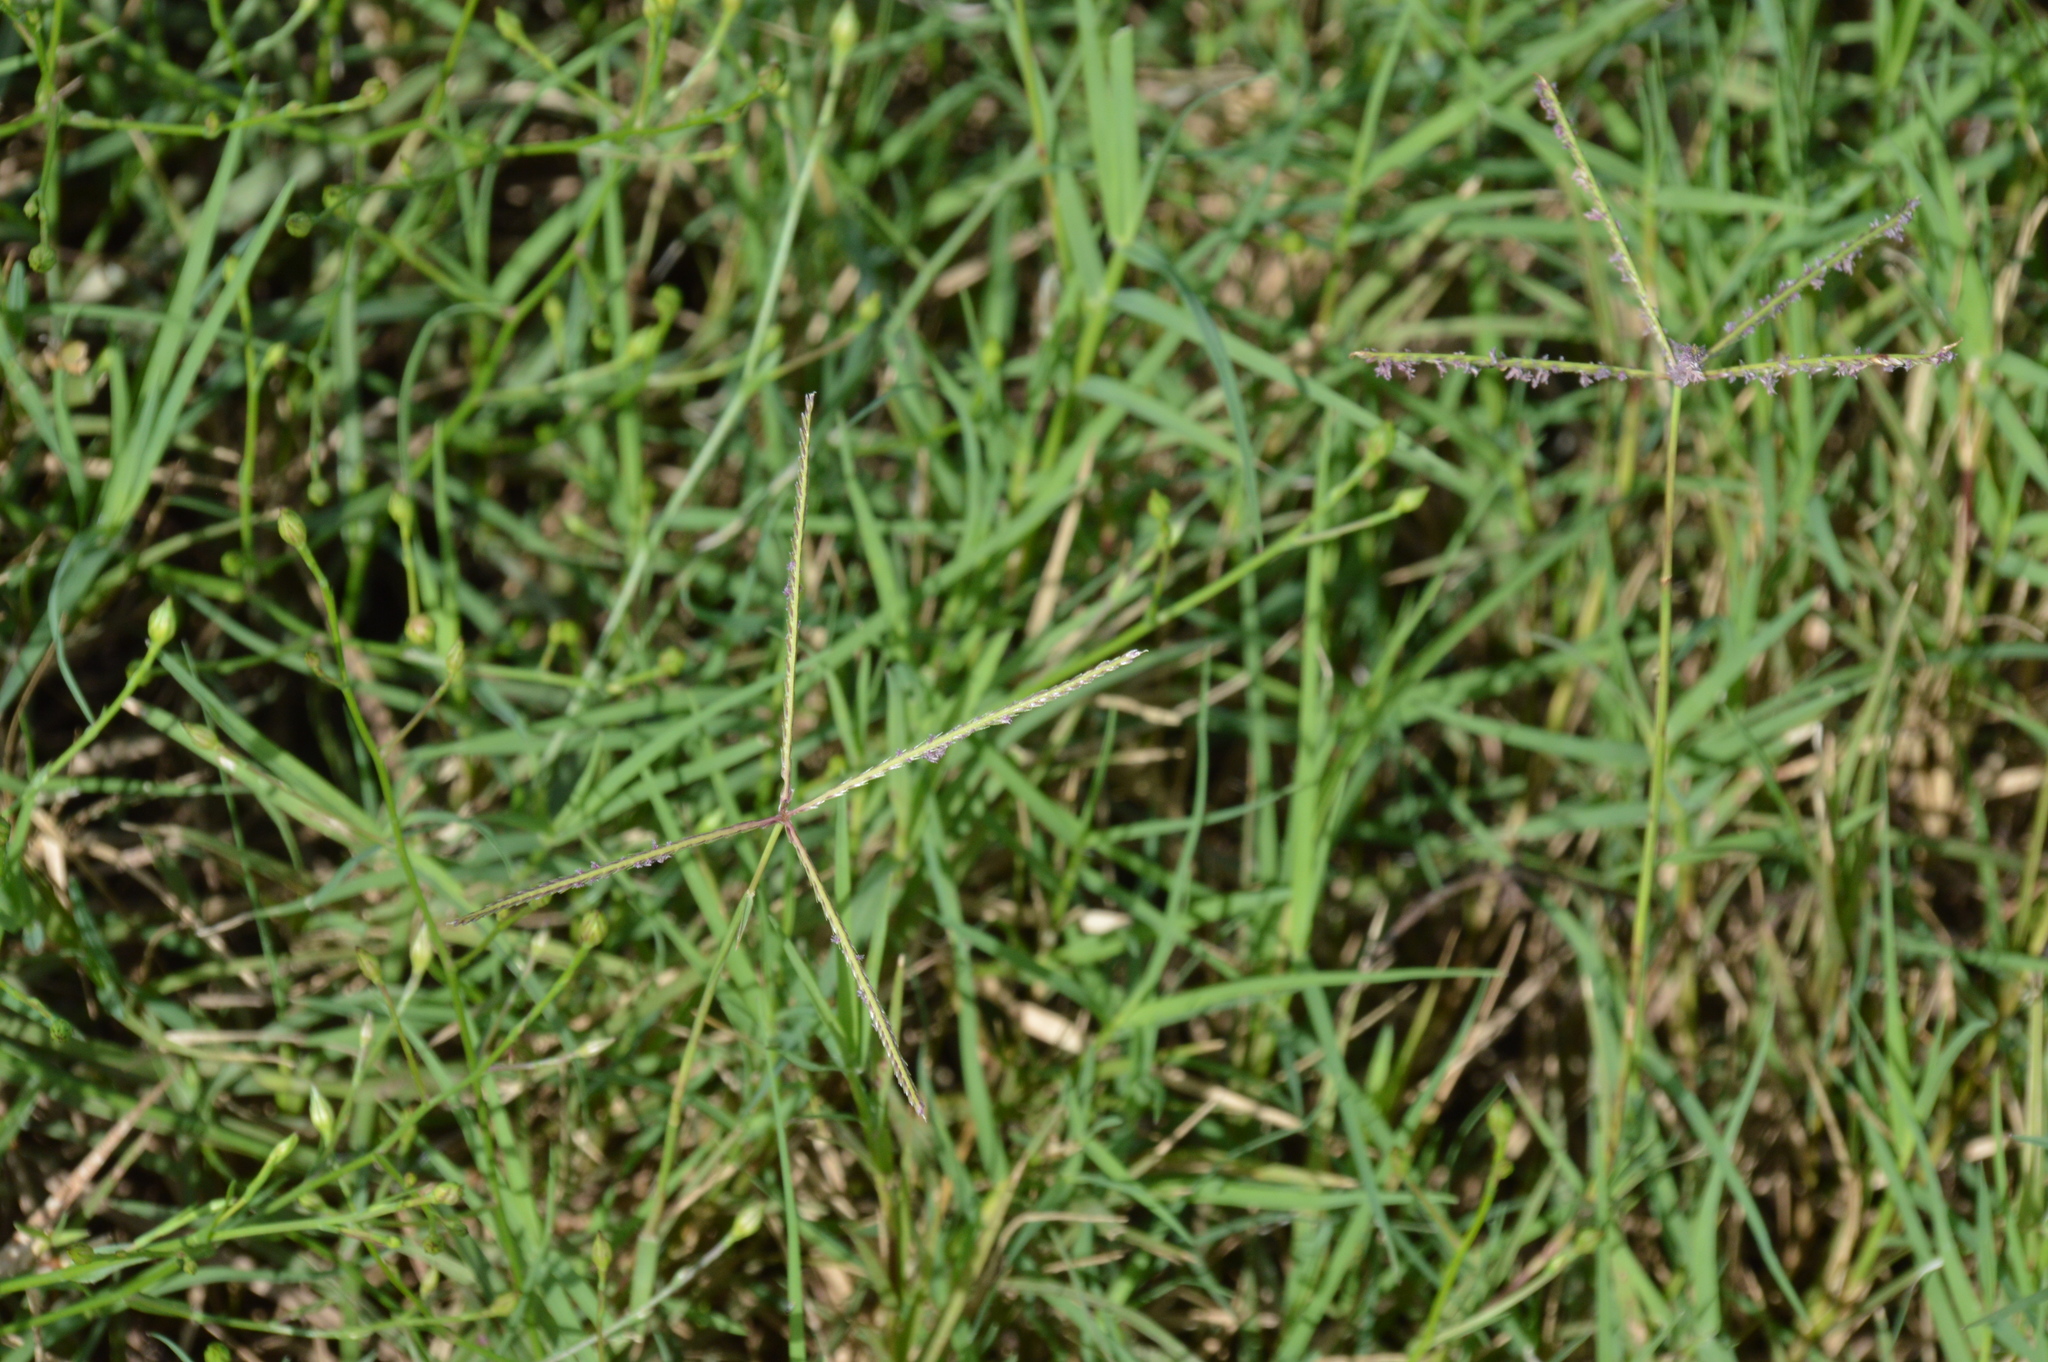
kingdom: Plantae
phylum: Tracheophyta
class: Liliopsida
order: Poales
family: Poaceae
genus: Cynodon
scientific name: Cynodon dactylon
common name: Bermuda grass
